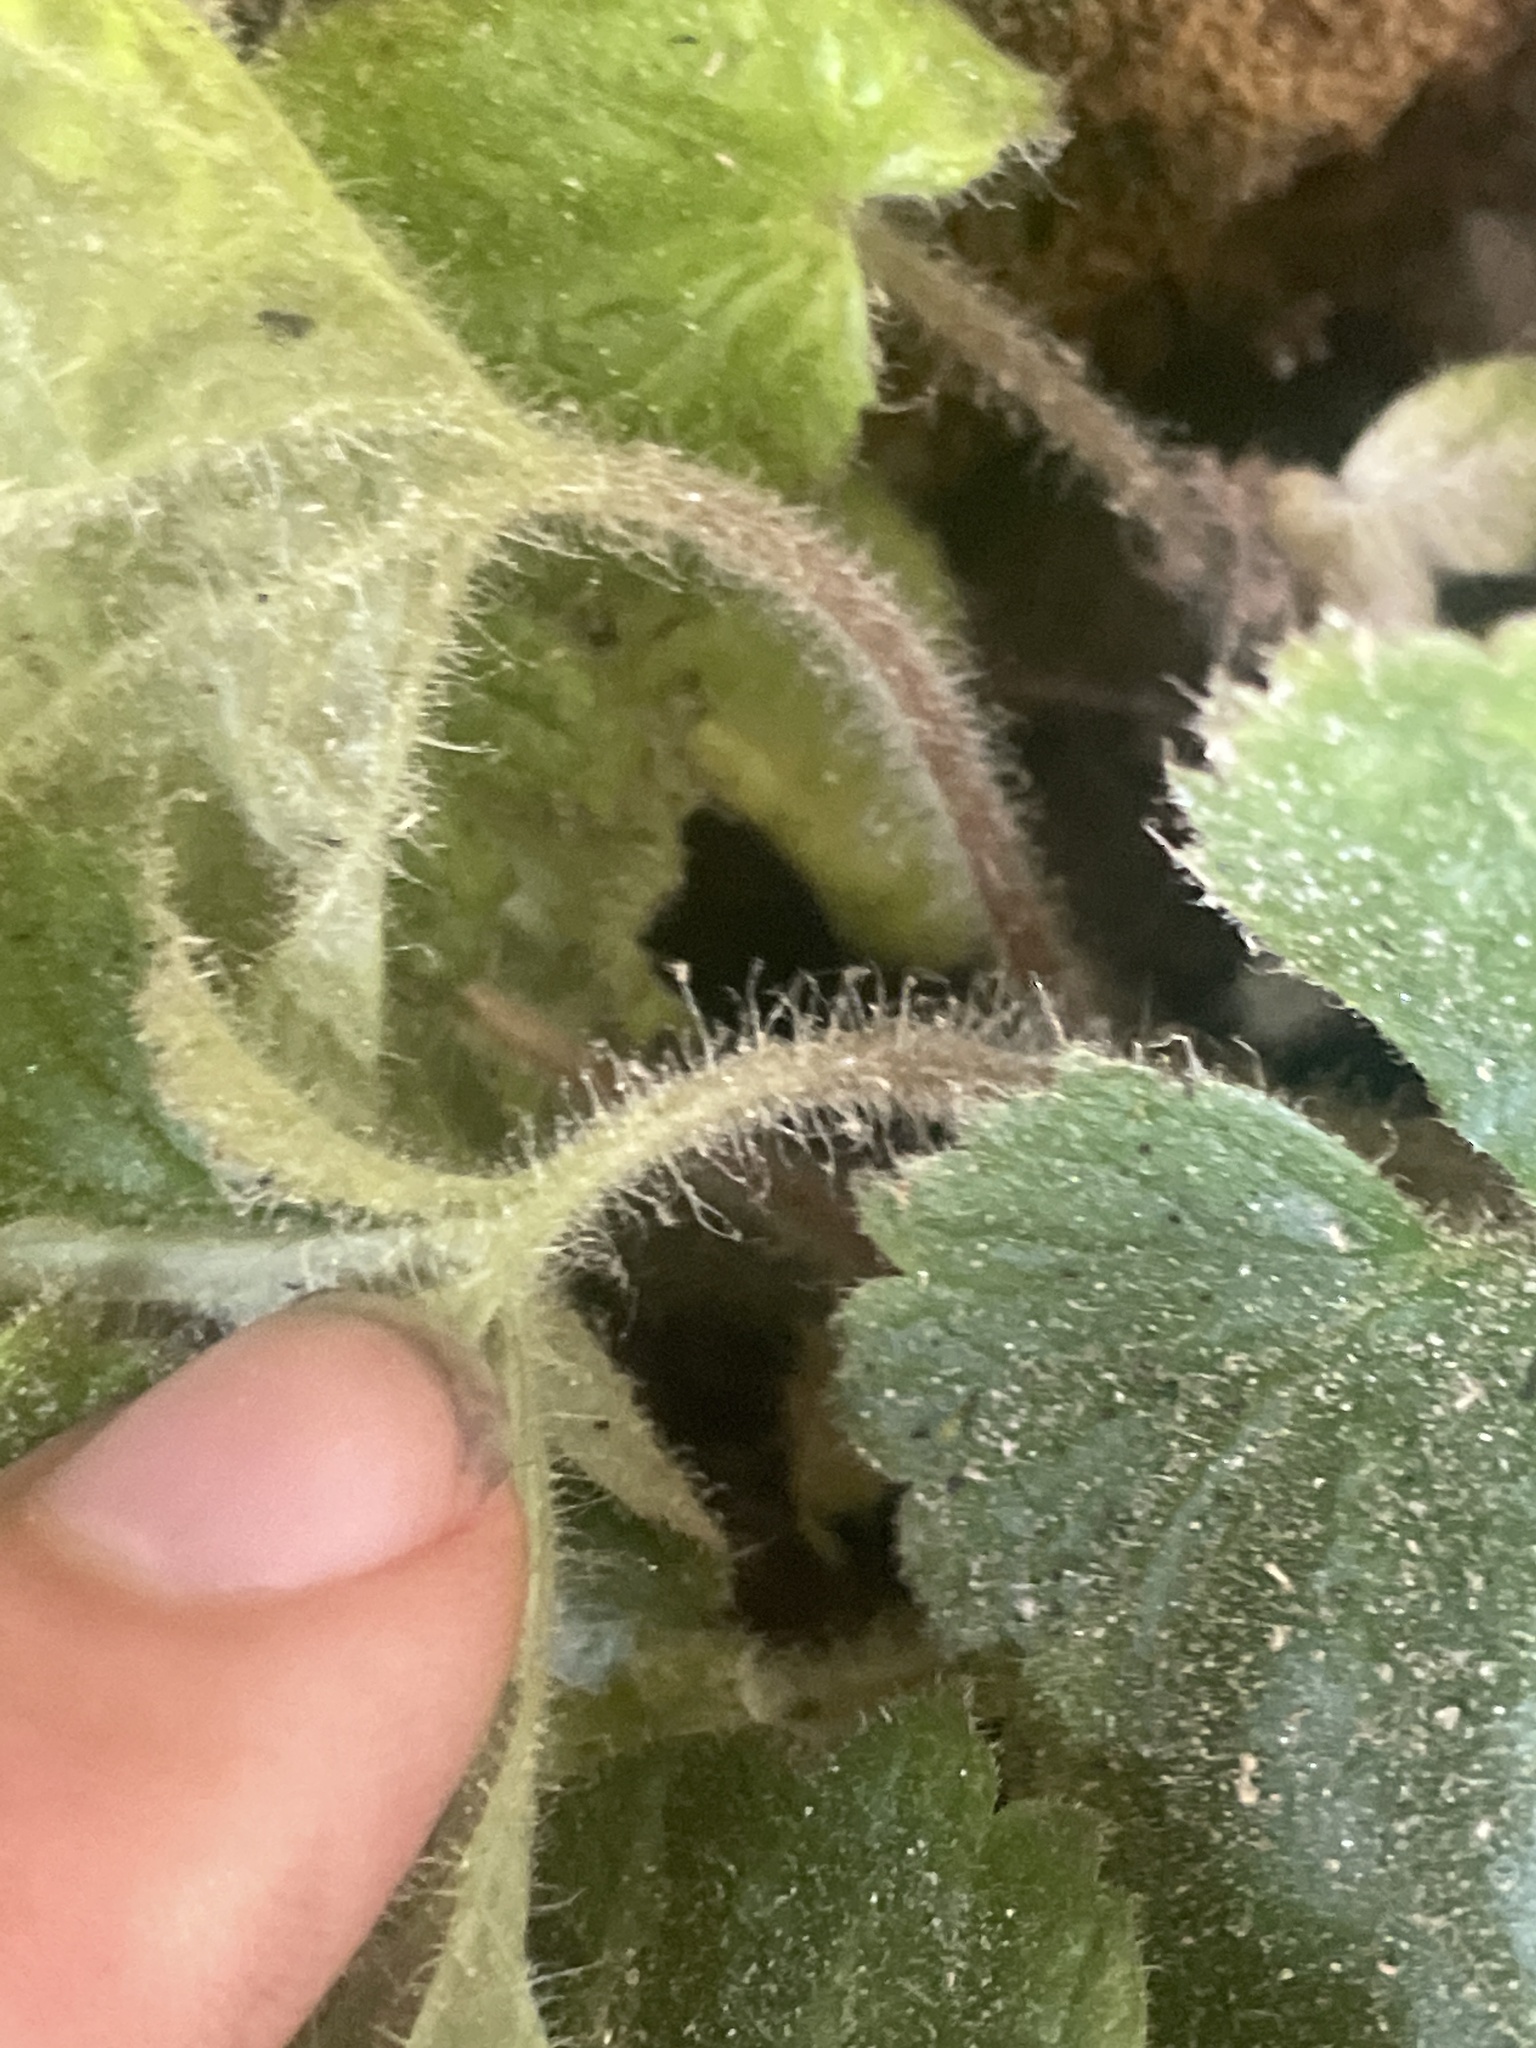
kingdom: Plantae
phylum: Tracheophyta
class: Magnoliopsida
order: Saxifragales
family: Saxifragaceae
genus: Heuchera
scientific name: Heuchera parviflora
